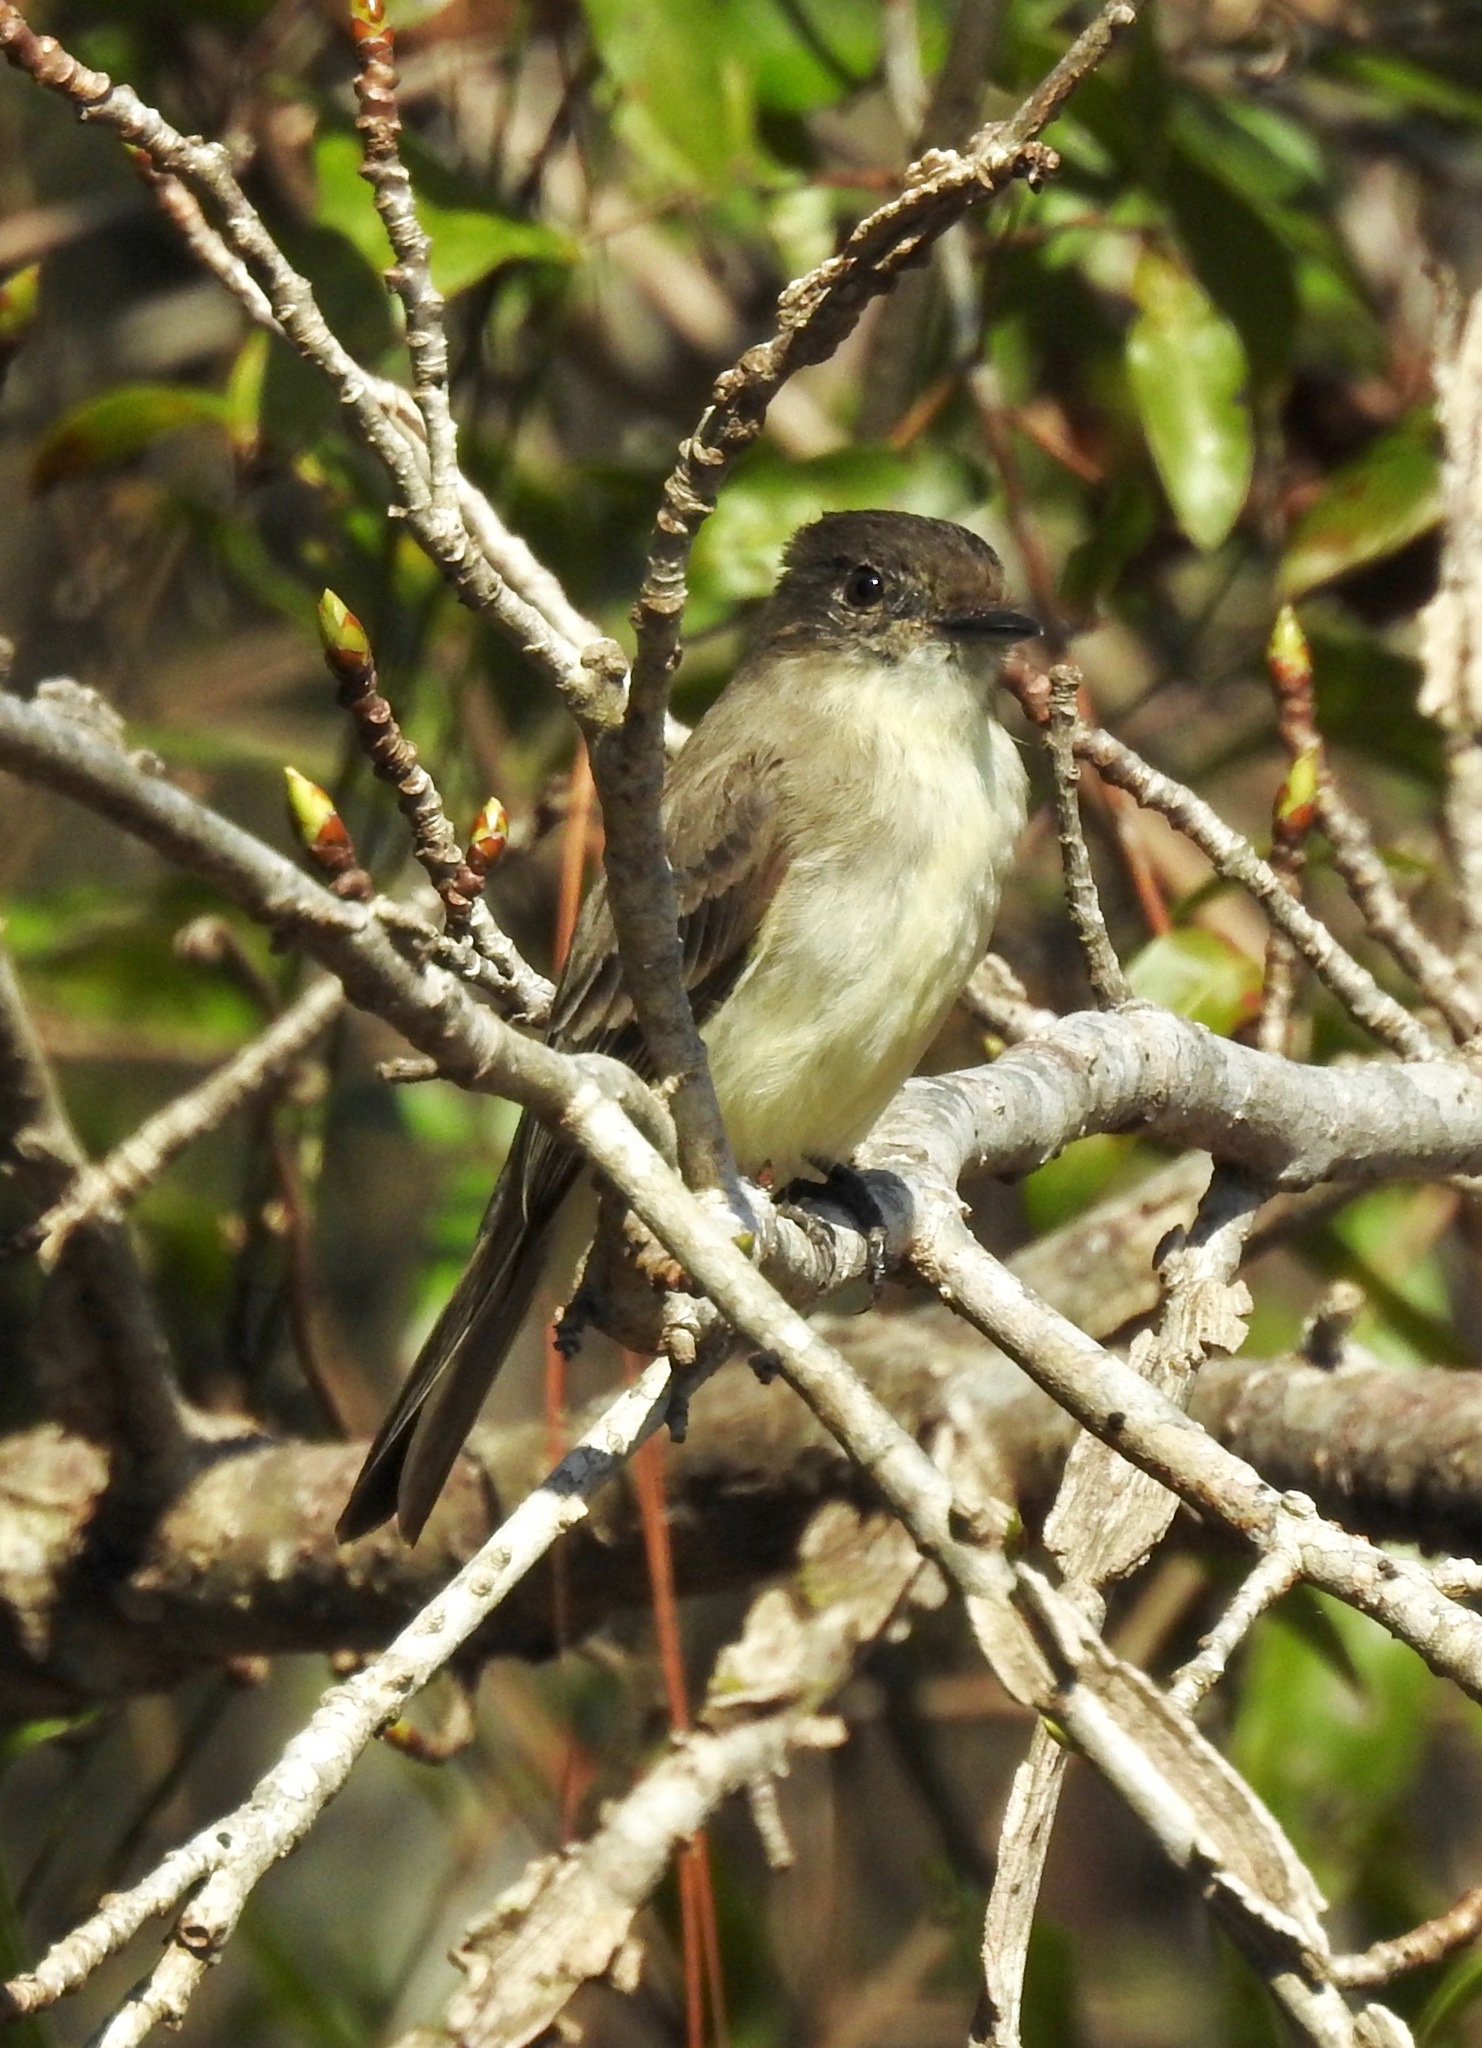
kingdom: Animalia
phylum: Chordata
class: Aves
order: Passeriformes
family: Tyrannidae
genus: Sayornis
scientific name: Sayornis phoebe
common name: Eastern phoebe
